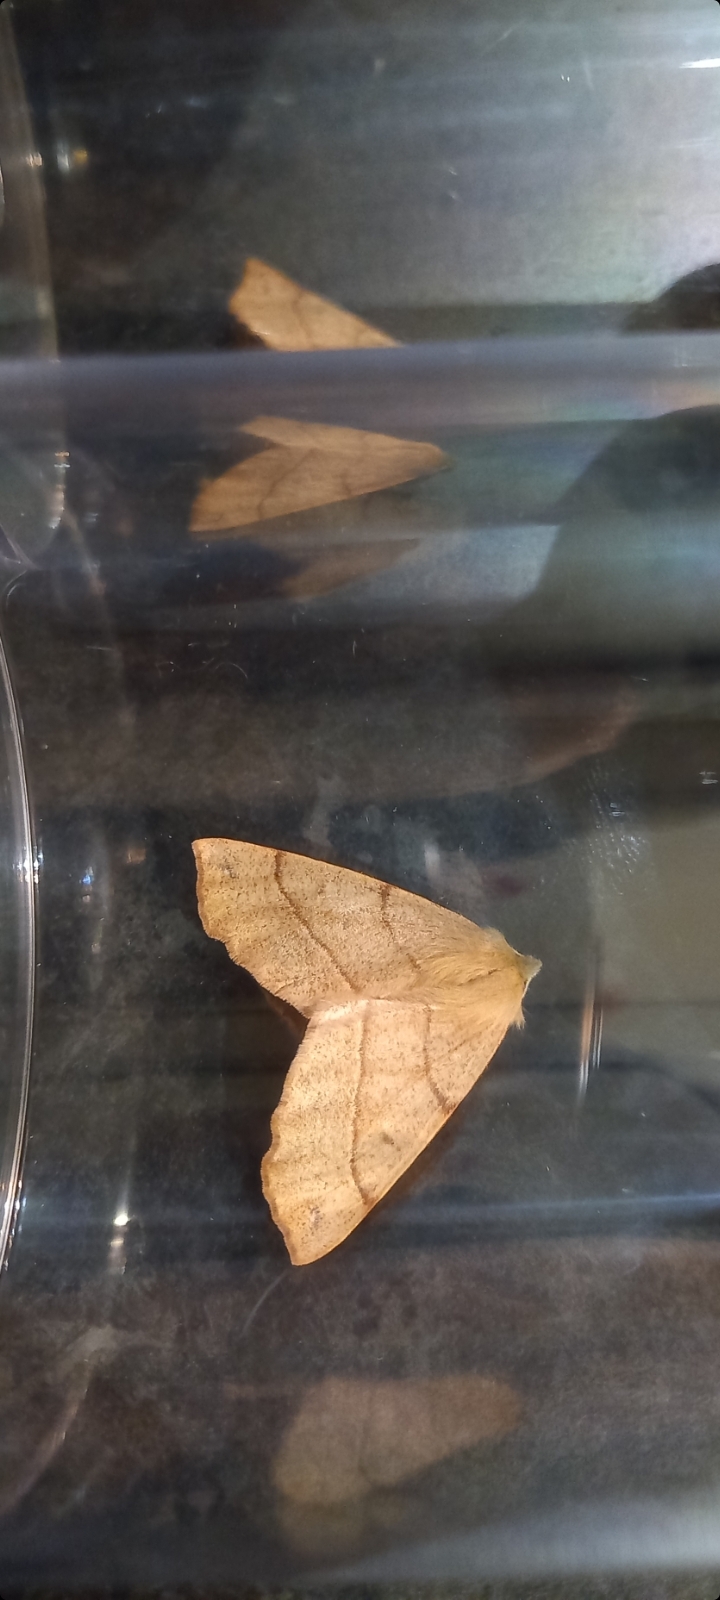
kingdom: Animalia
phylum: Arthropoda
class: Insecta
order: Lepidoptera
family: Geometridae
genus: Colotois
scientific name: Colotois pennaria
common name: Feathered thorn
